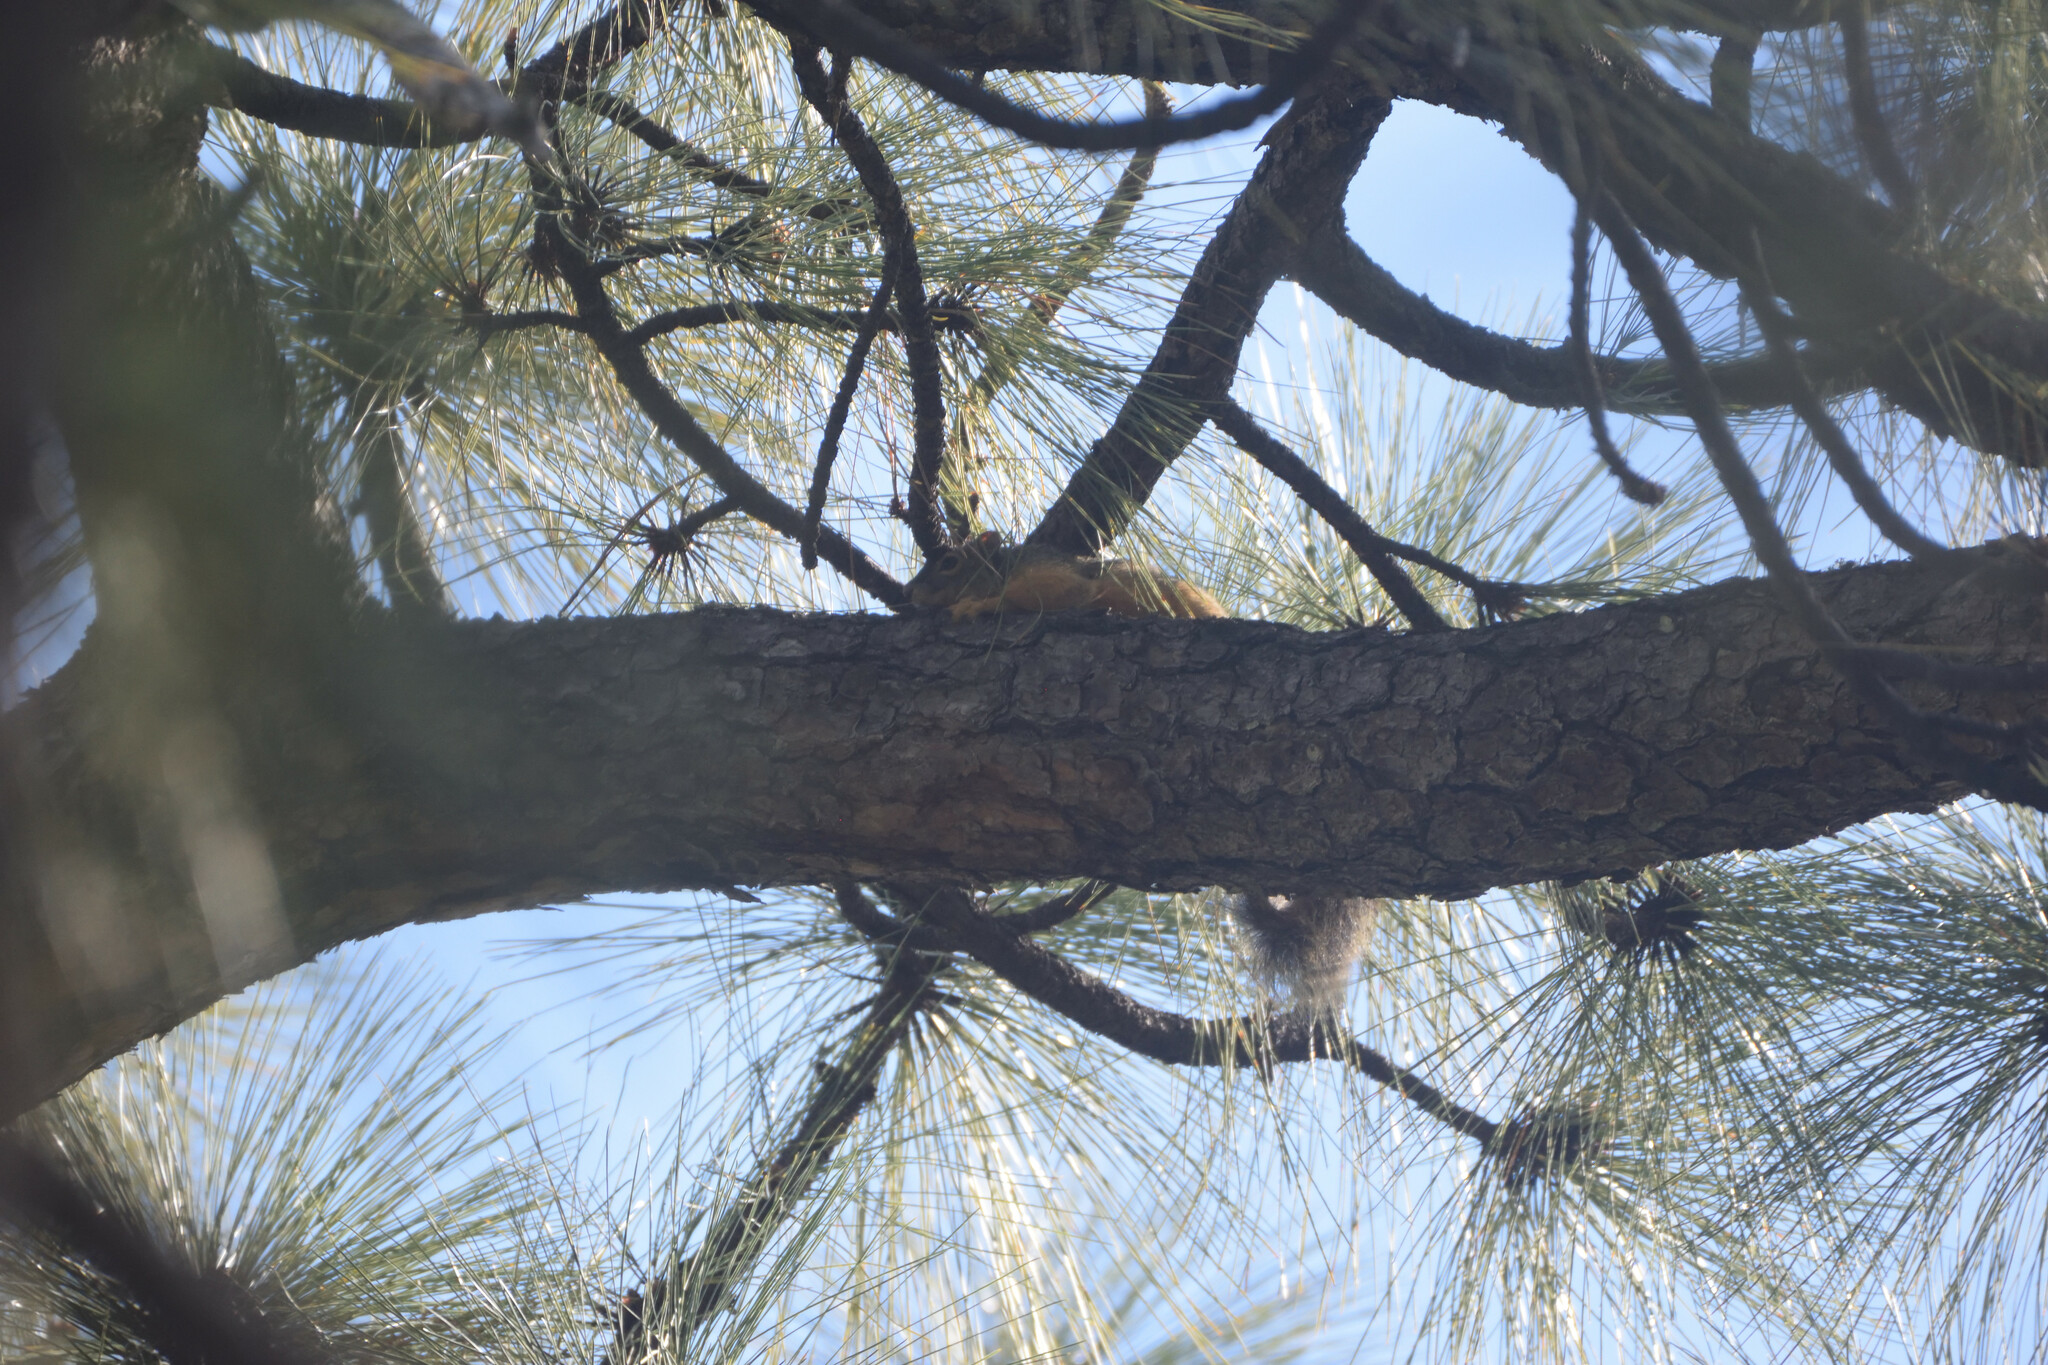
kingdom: Animalia
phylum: Chordata
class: Mammalia
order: Rodentia
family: Sciuridae
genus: Sciurus
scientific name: Sciurus nayaritensis
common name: Mexican fox squirrel
